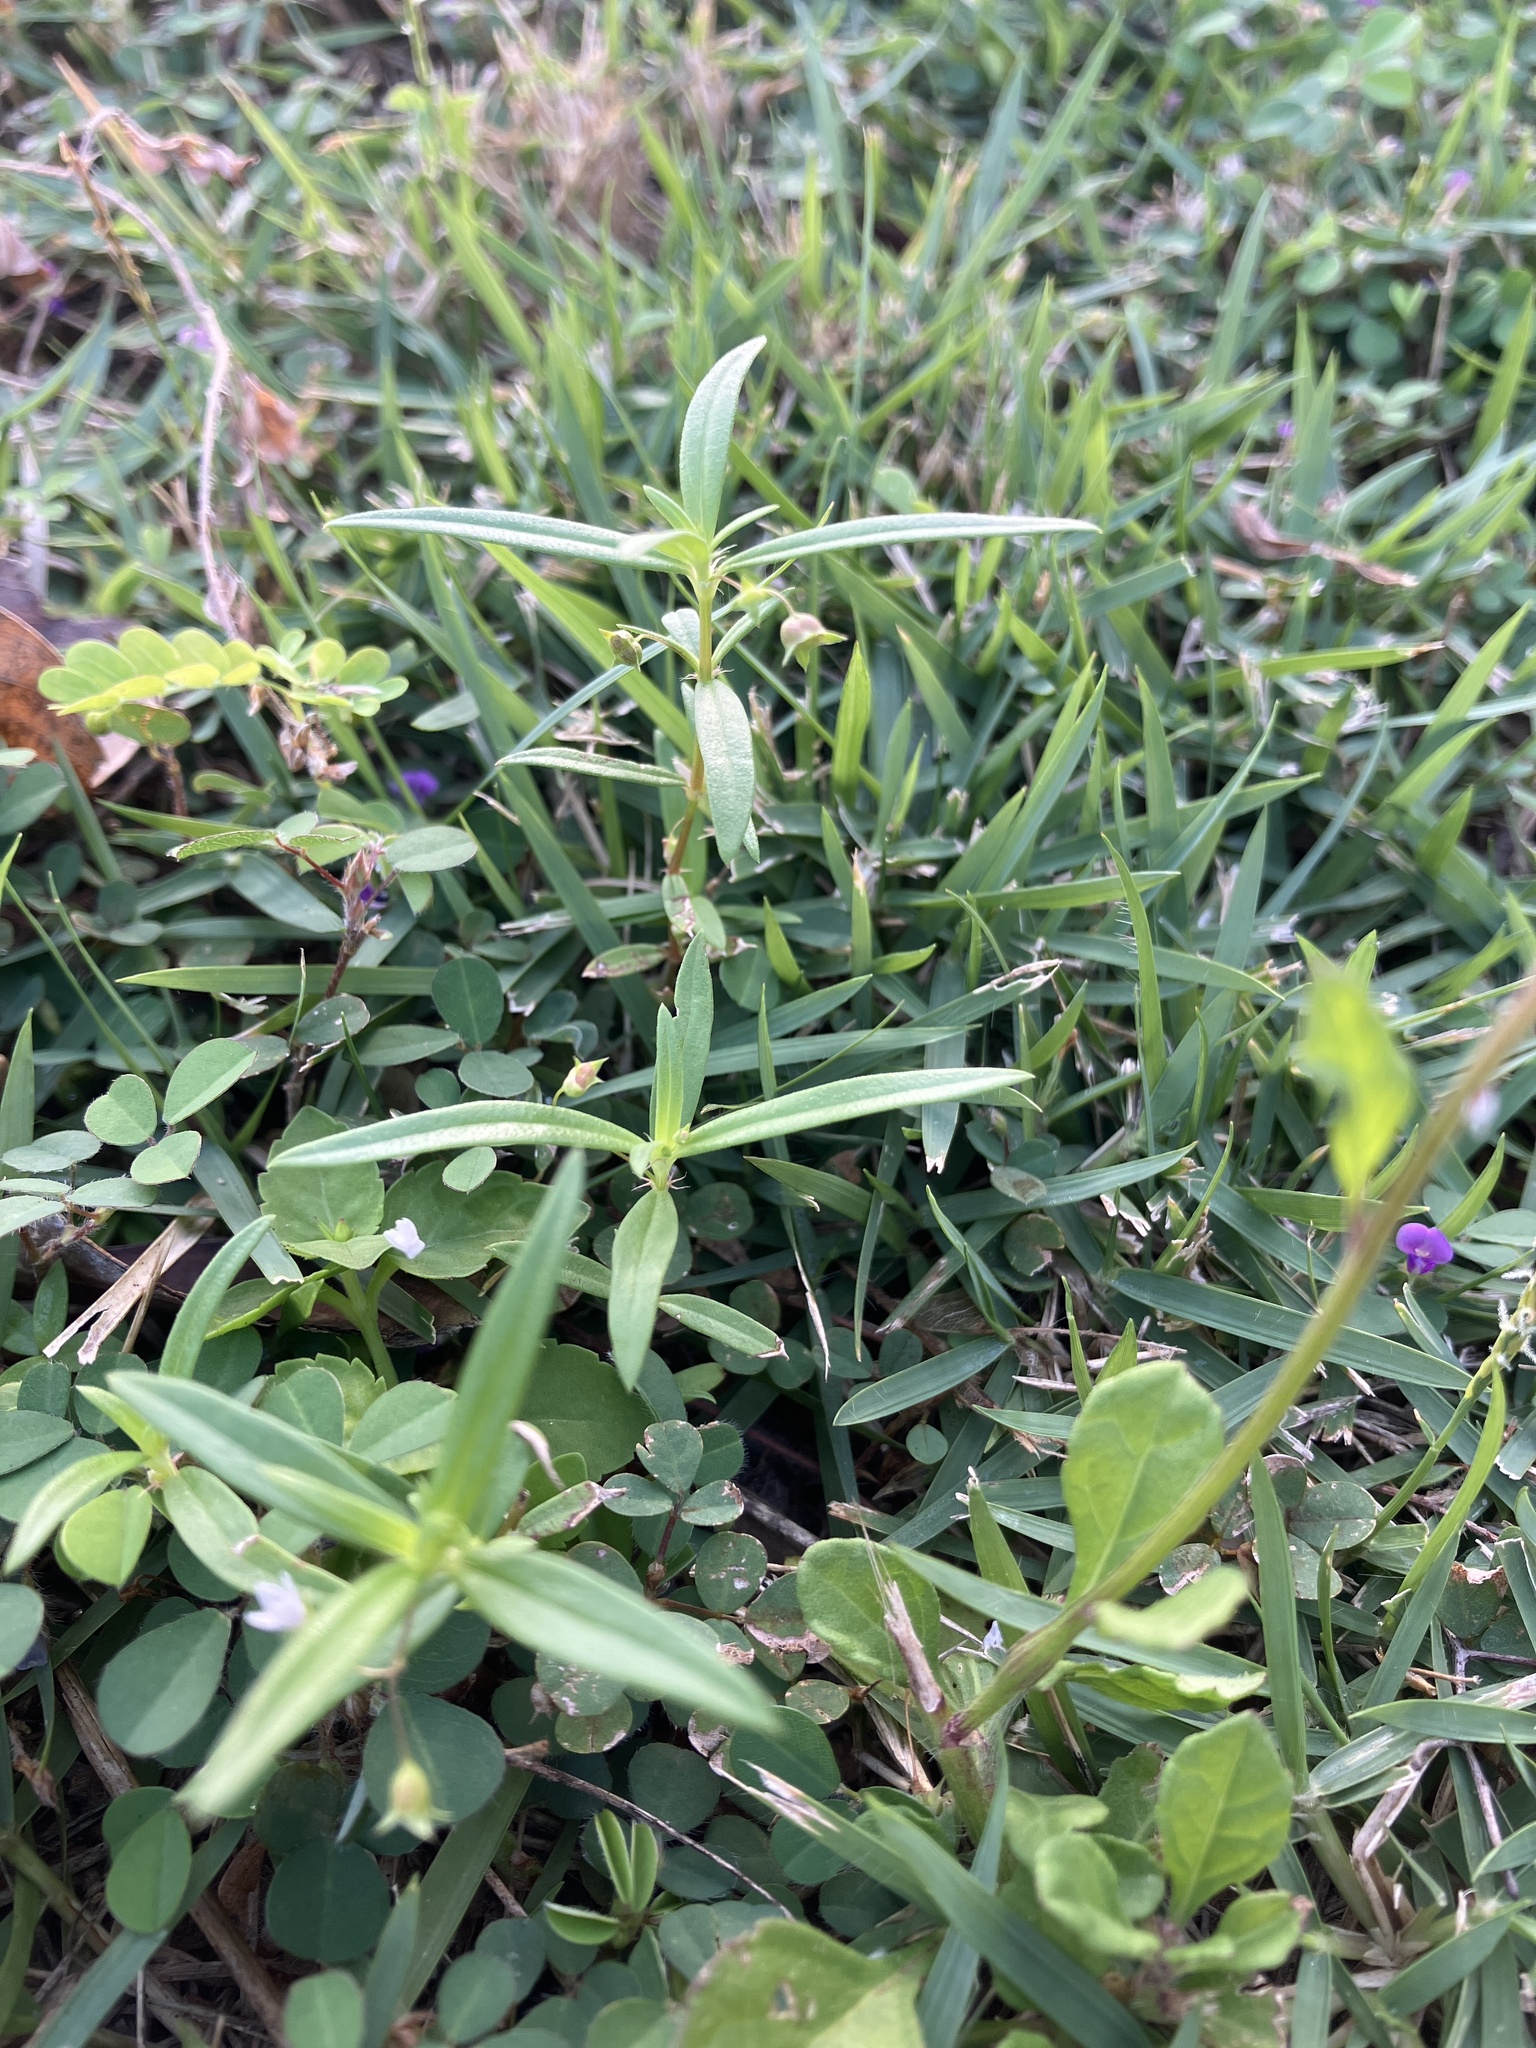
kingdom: Plantae
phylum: Tracheophyta
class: Magnoliopsida
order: Gentianales
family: Rubiaceae
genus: Oldenlandia
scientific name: Oldenlandia corymbosa
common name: Flat-top mille graines
